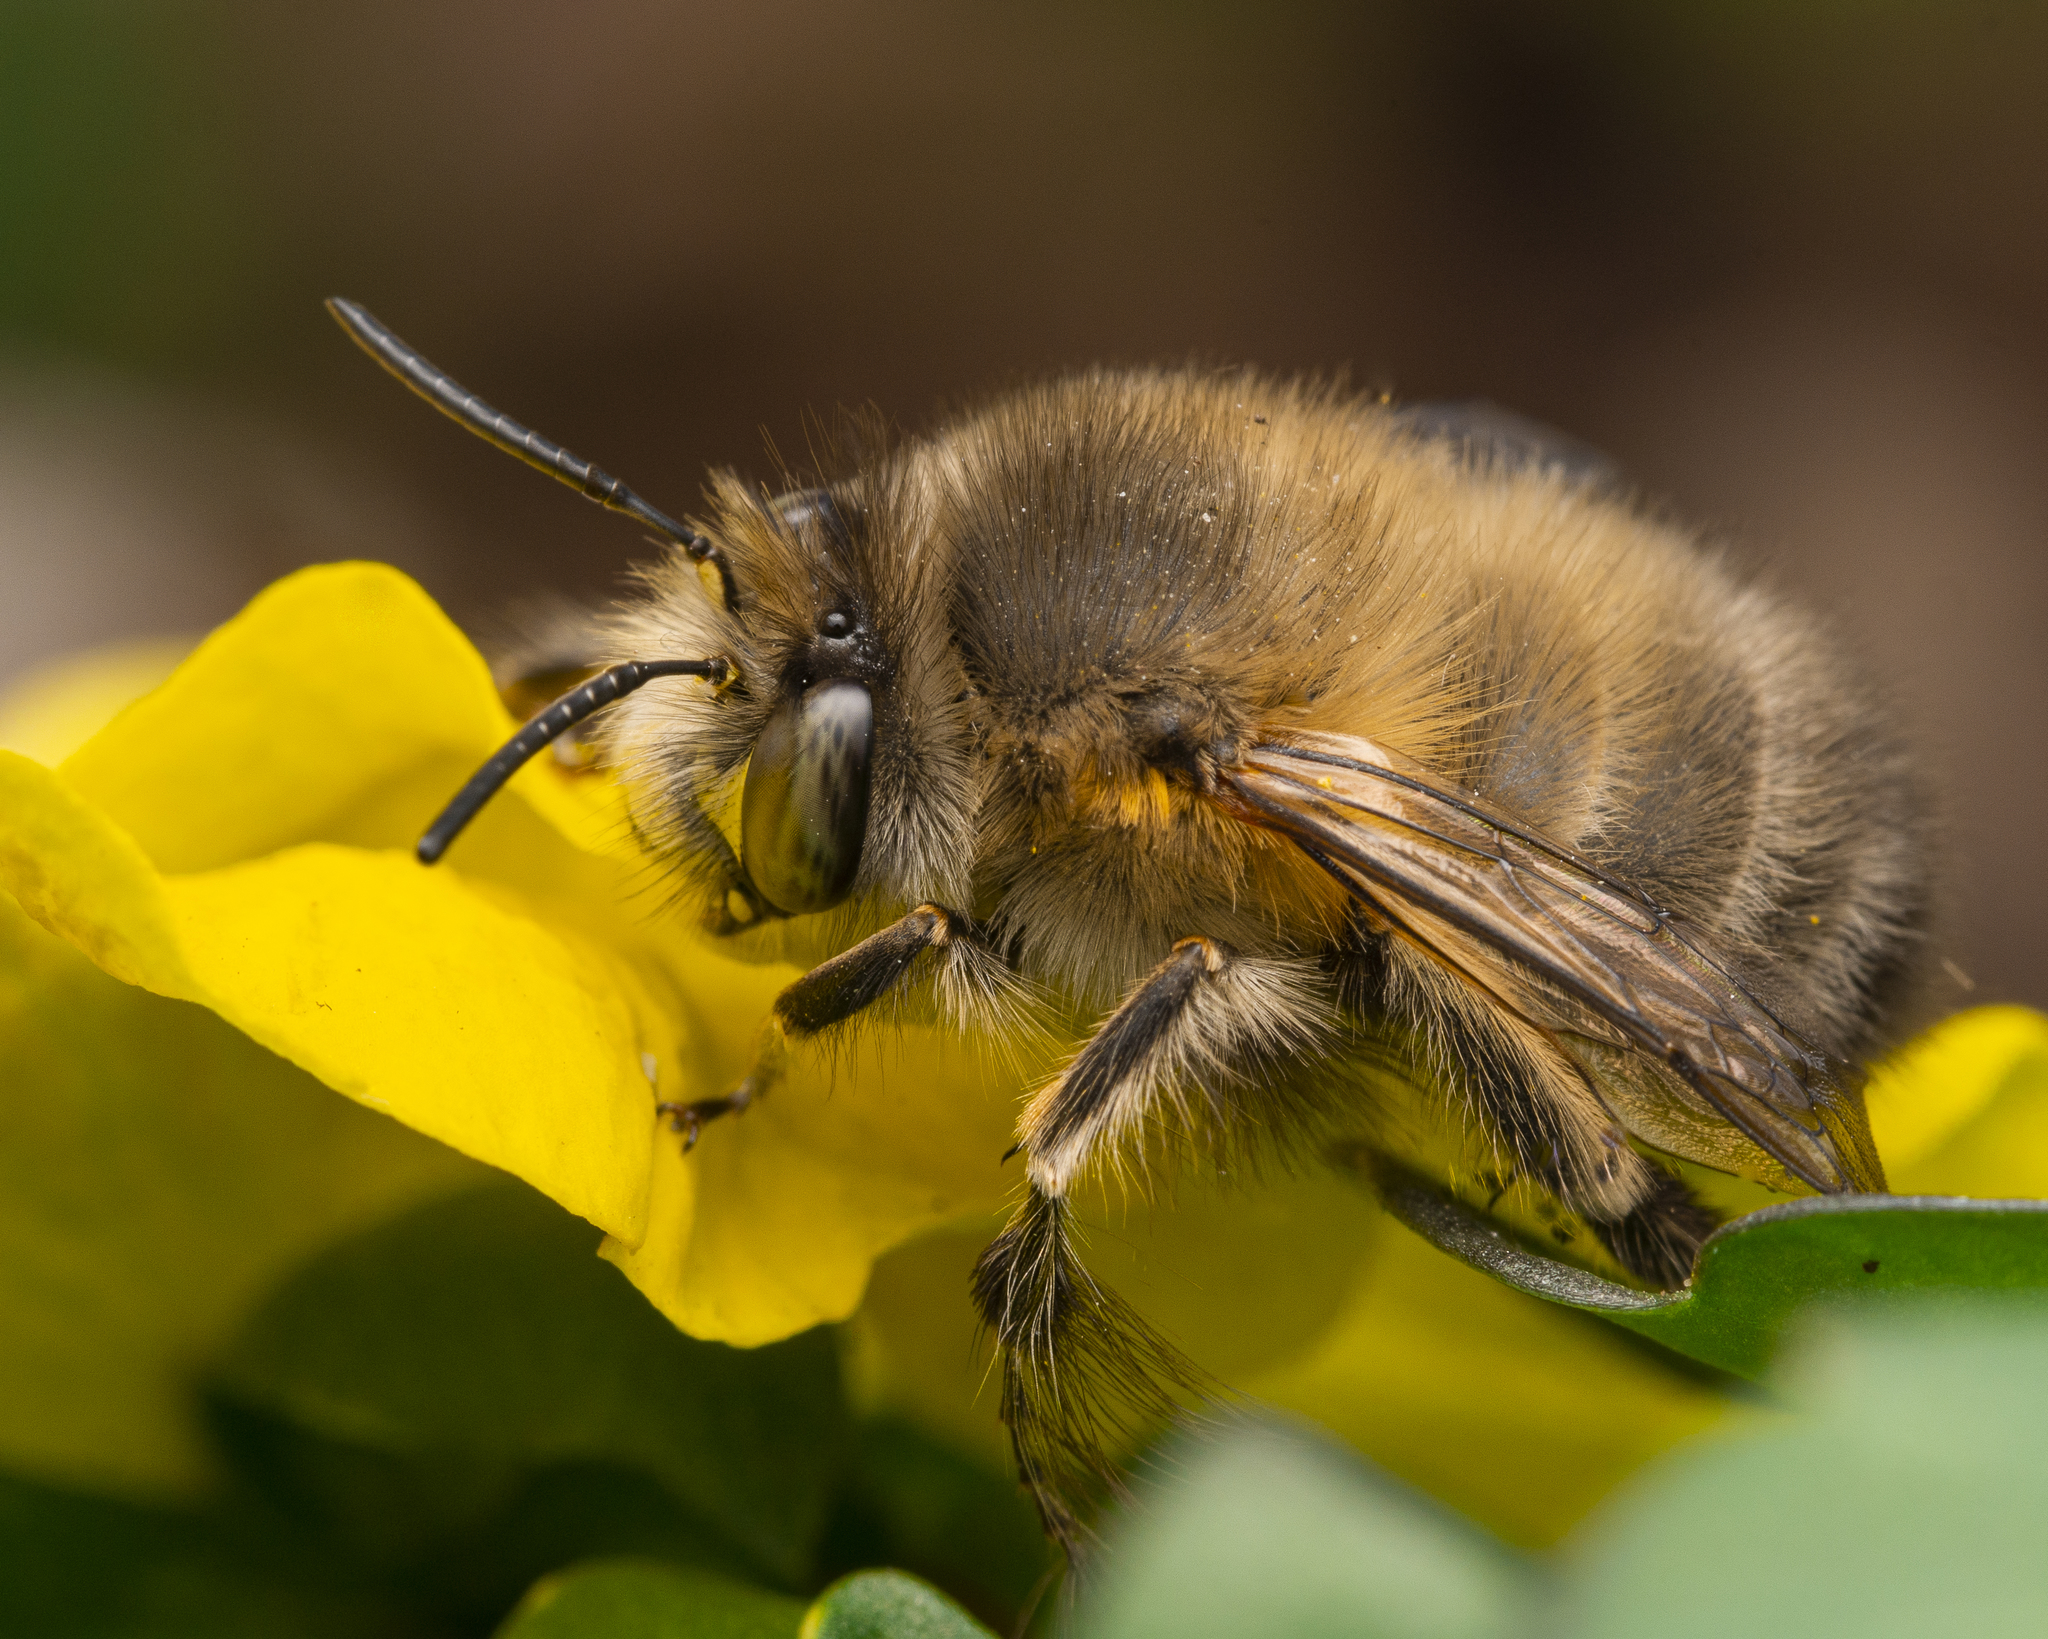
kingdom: Animalia
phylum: Arthropoda
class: Insecta
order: Hymenoptera
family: Apidae
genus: Anthophora
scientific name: Anthophora plumipes
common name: Hairy-footed flower bee
